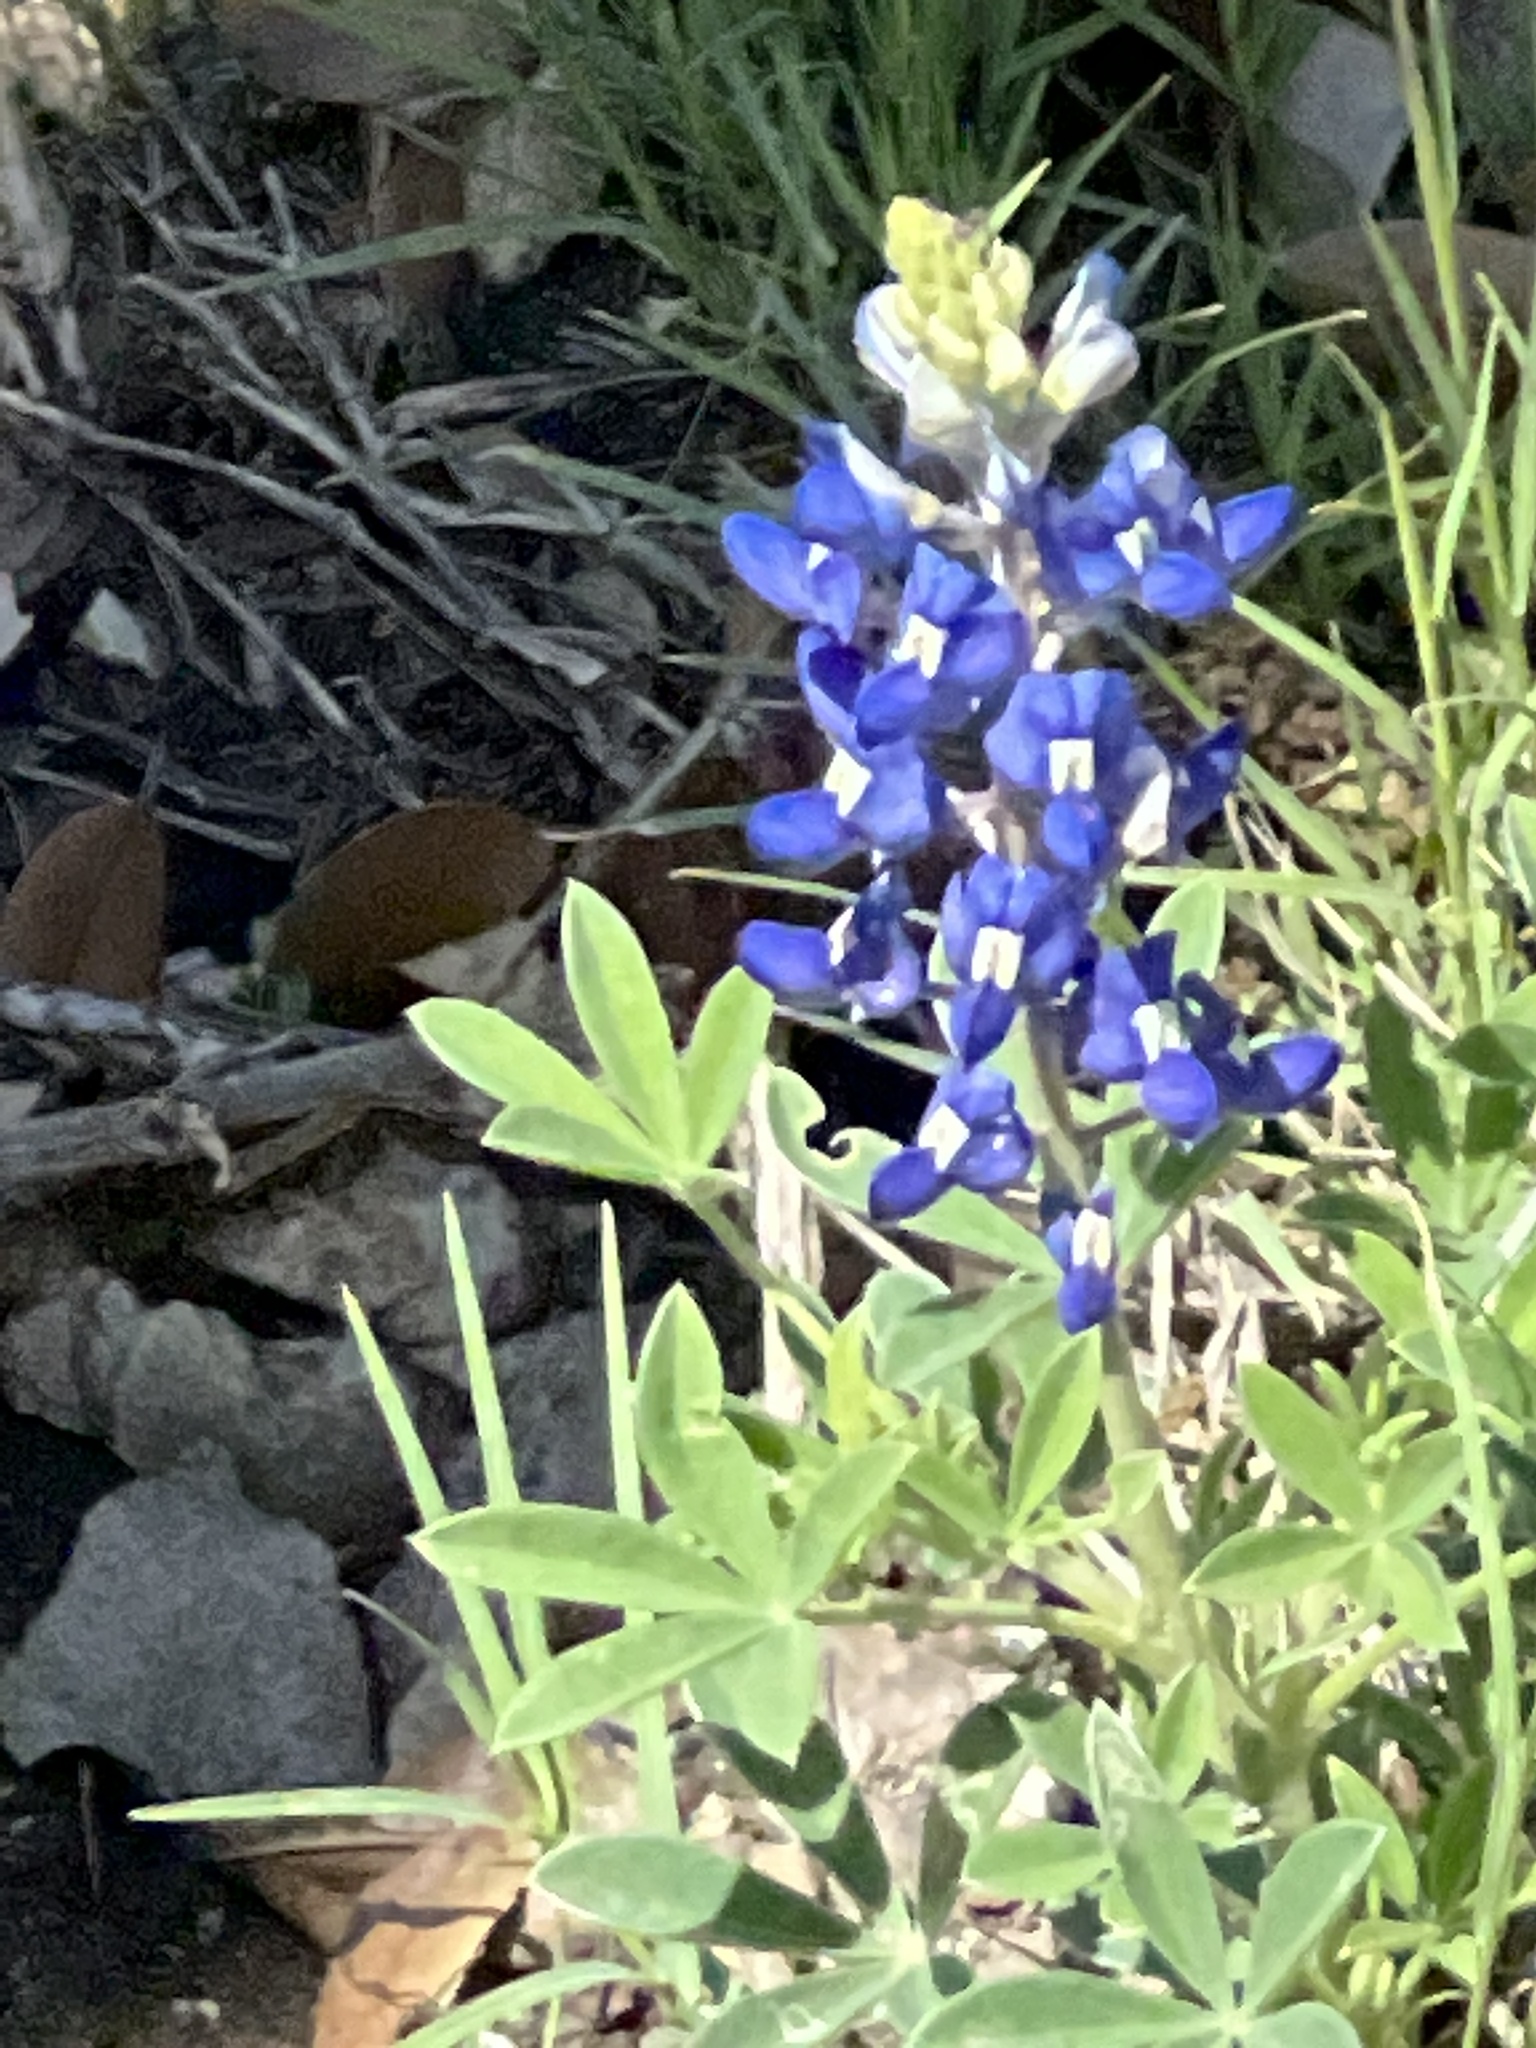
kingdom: Plantae
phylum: Tracheophyta
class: Magnoliopsida
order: Fabales
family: Fabaceae
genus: Lupinus
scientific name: Lupinus texensis
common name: Texas bluebonnet
